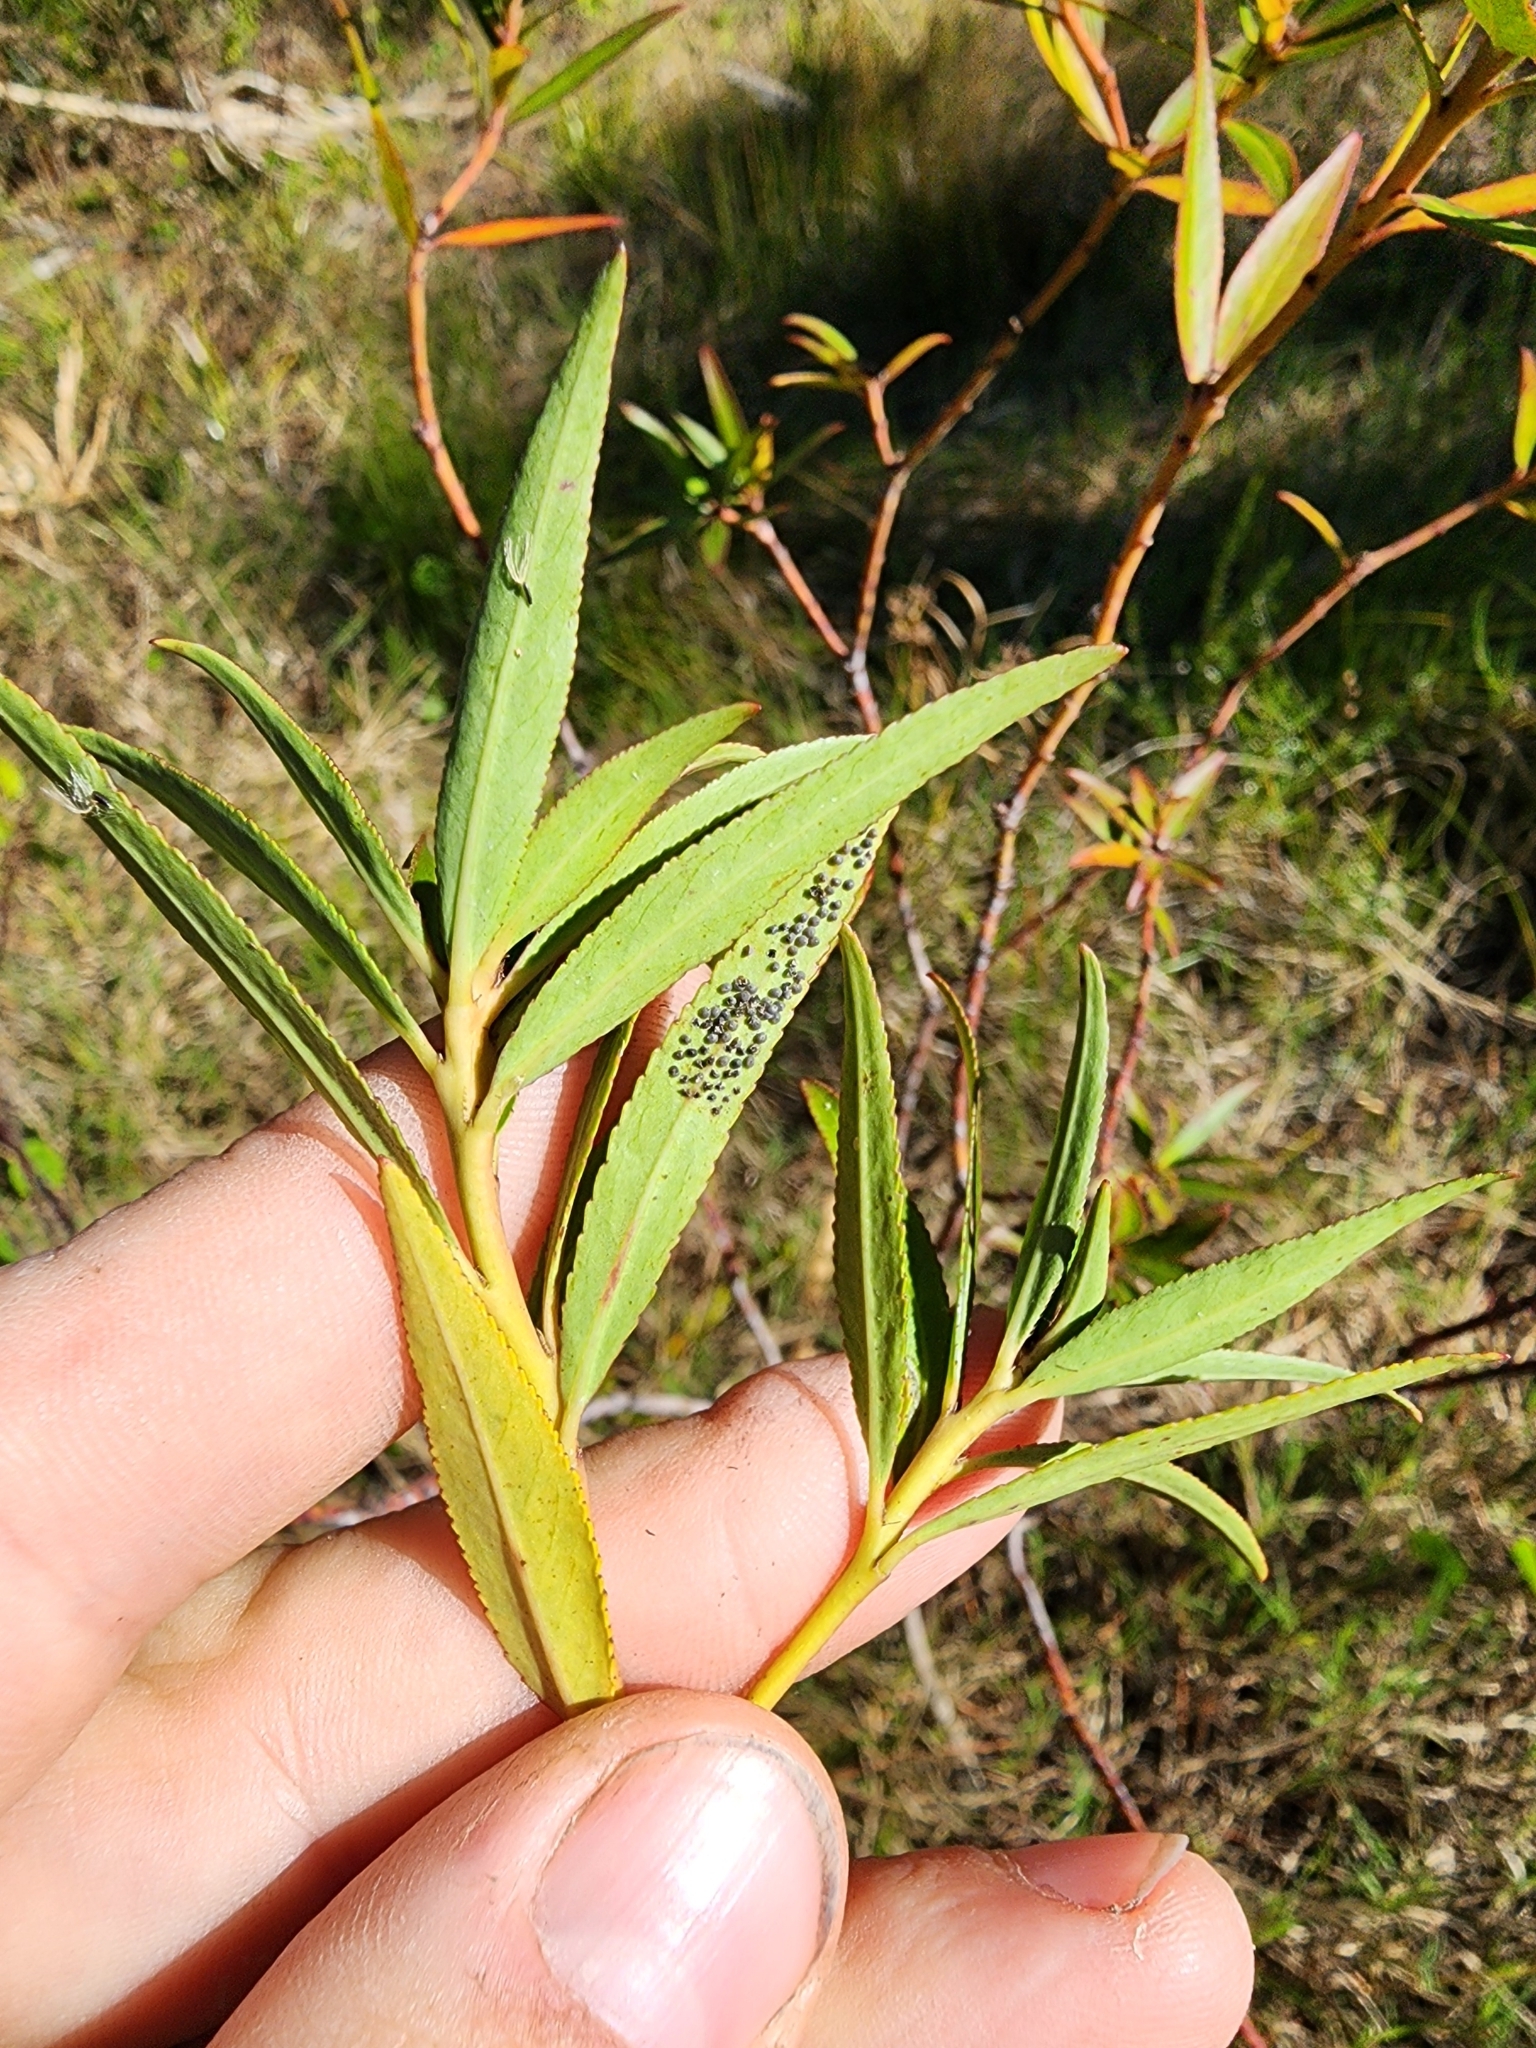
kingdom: Plantae
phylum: Tracheophyta
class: Magnoliopsida
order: Malpighiales
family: Euphorbiaceae
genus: Stillingia
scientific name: Stillingia aquatica
